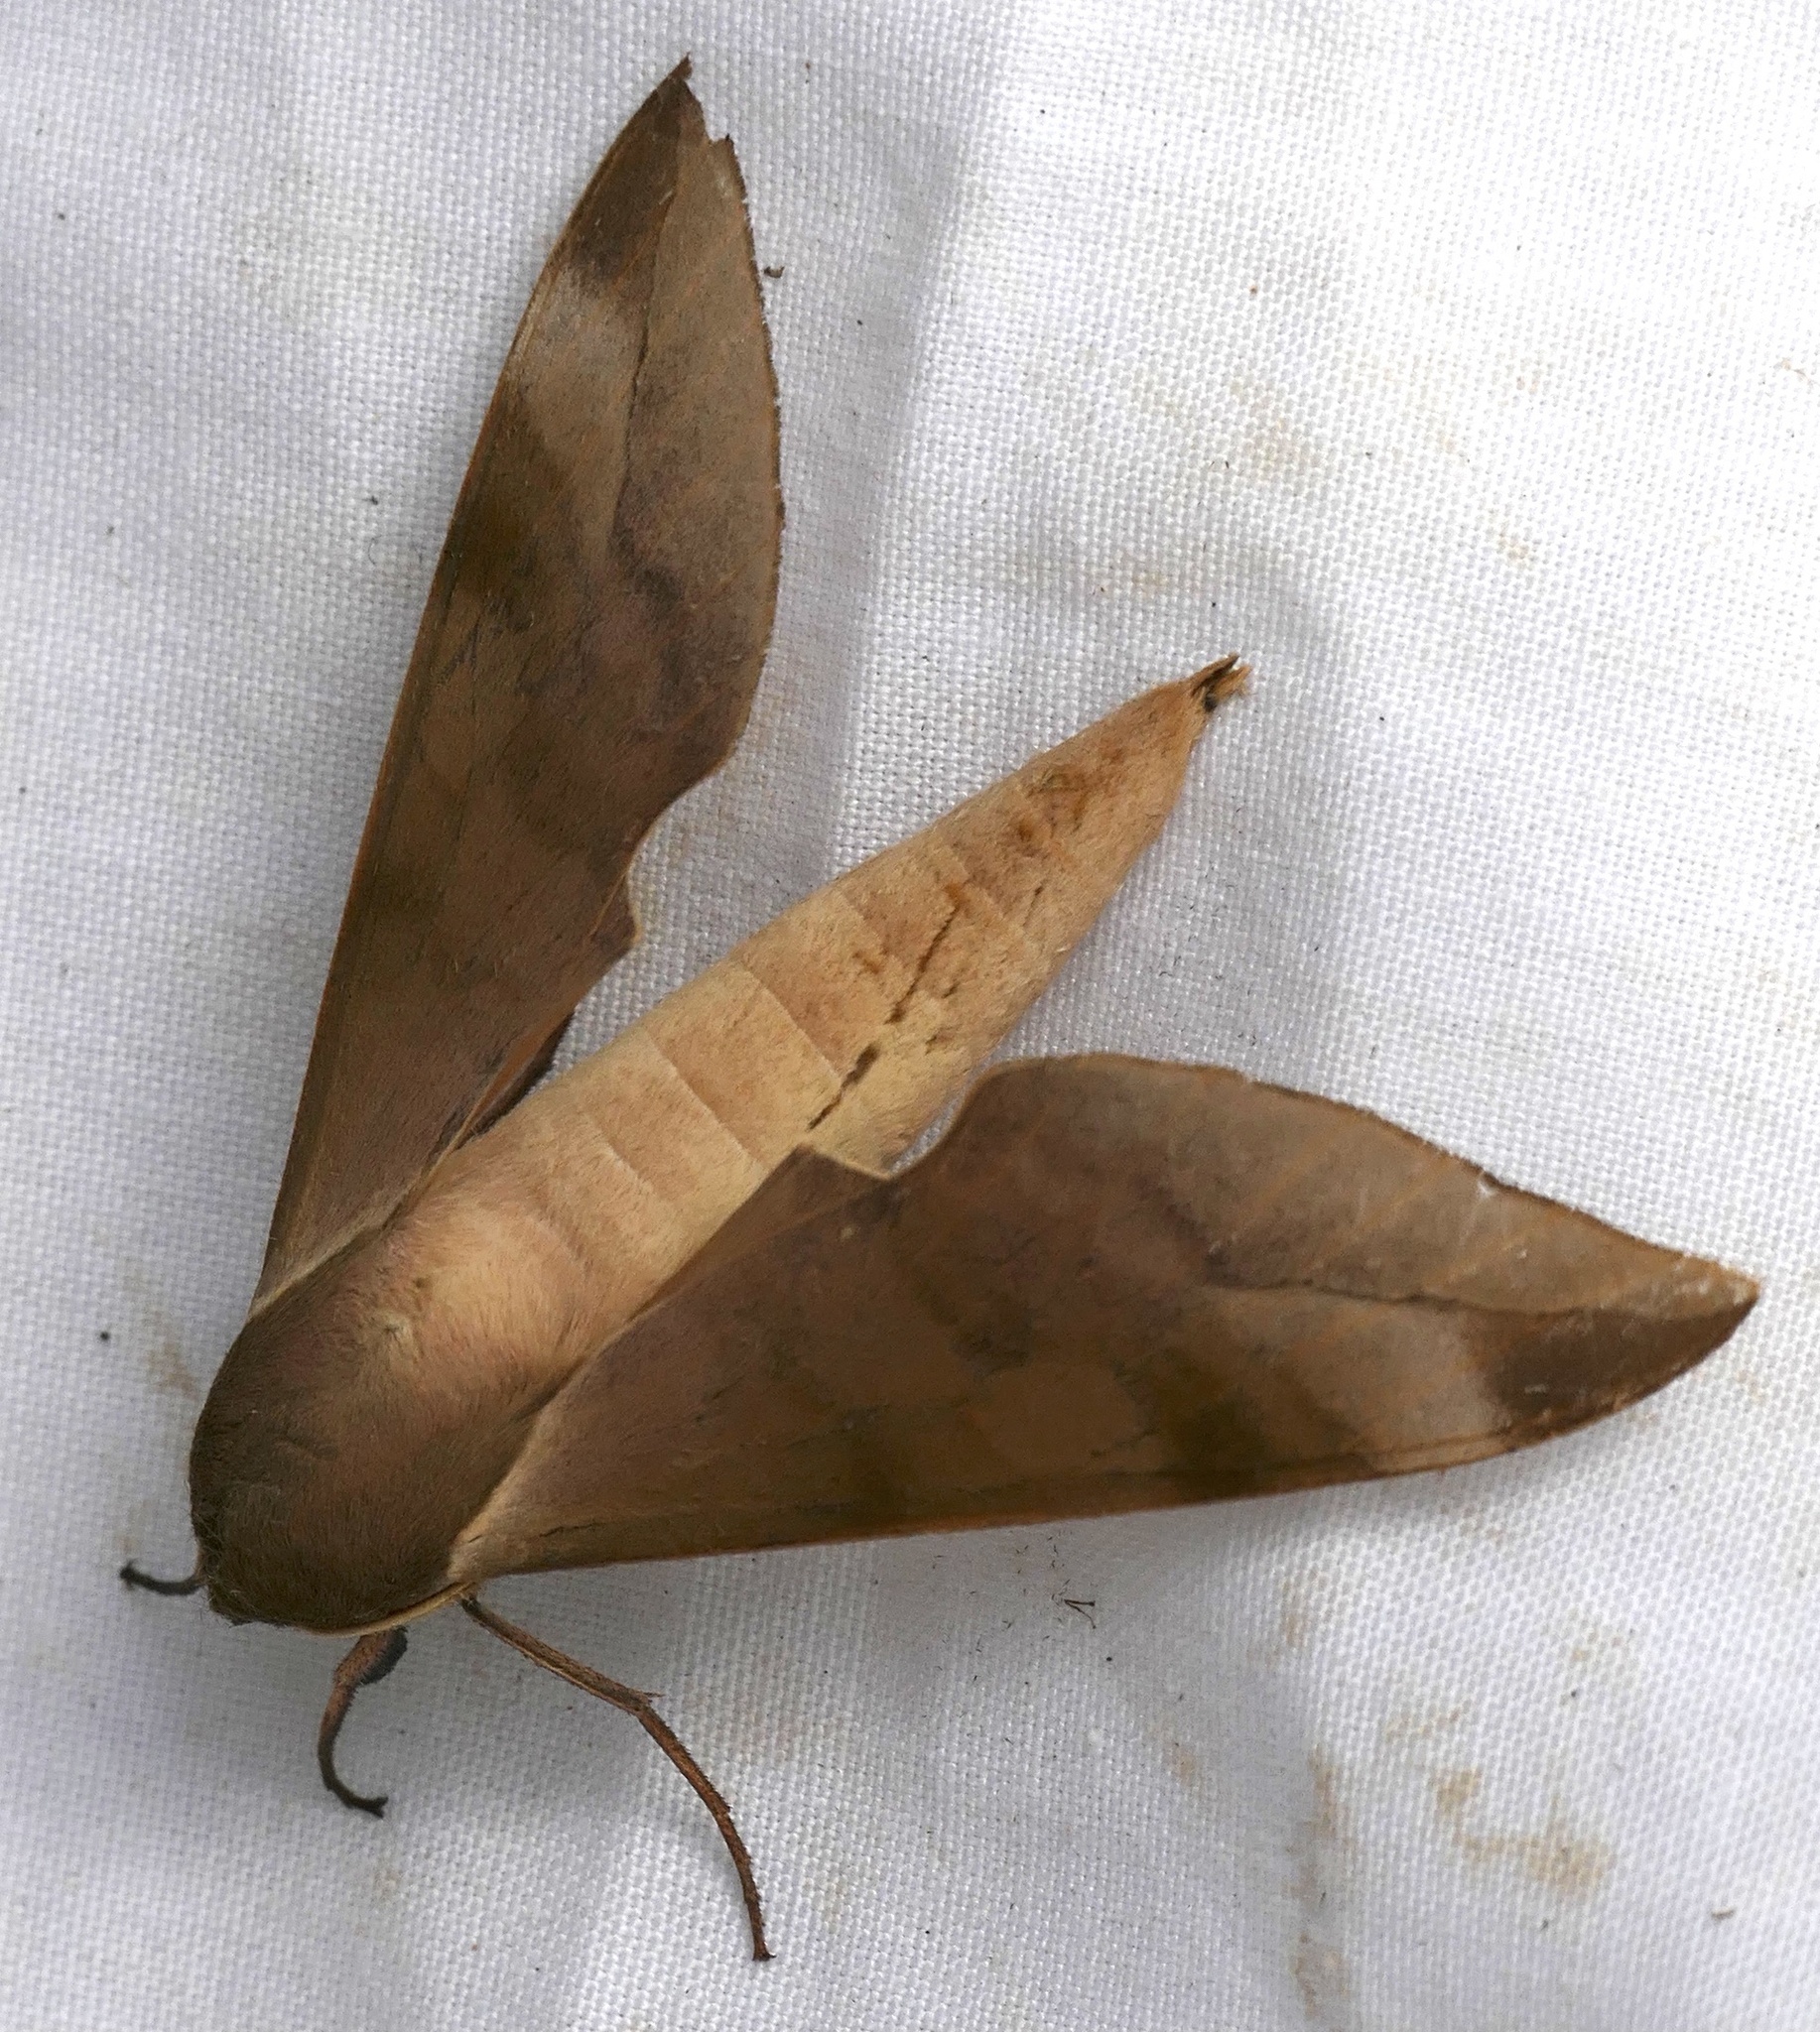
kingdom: Animalia
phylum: Arthropoda
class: Insecta
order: Lepidoptera
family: Sphingidae
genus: Phylloxiphia
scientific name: Phylloxiphia bicolor
